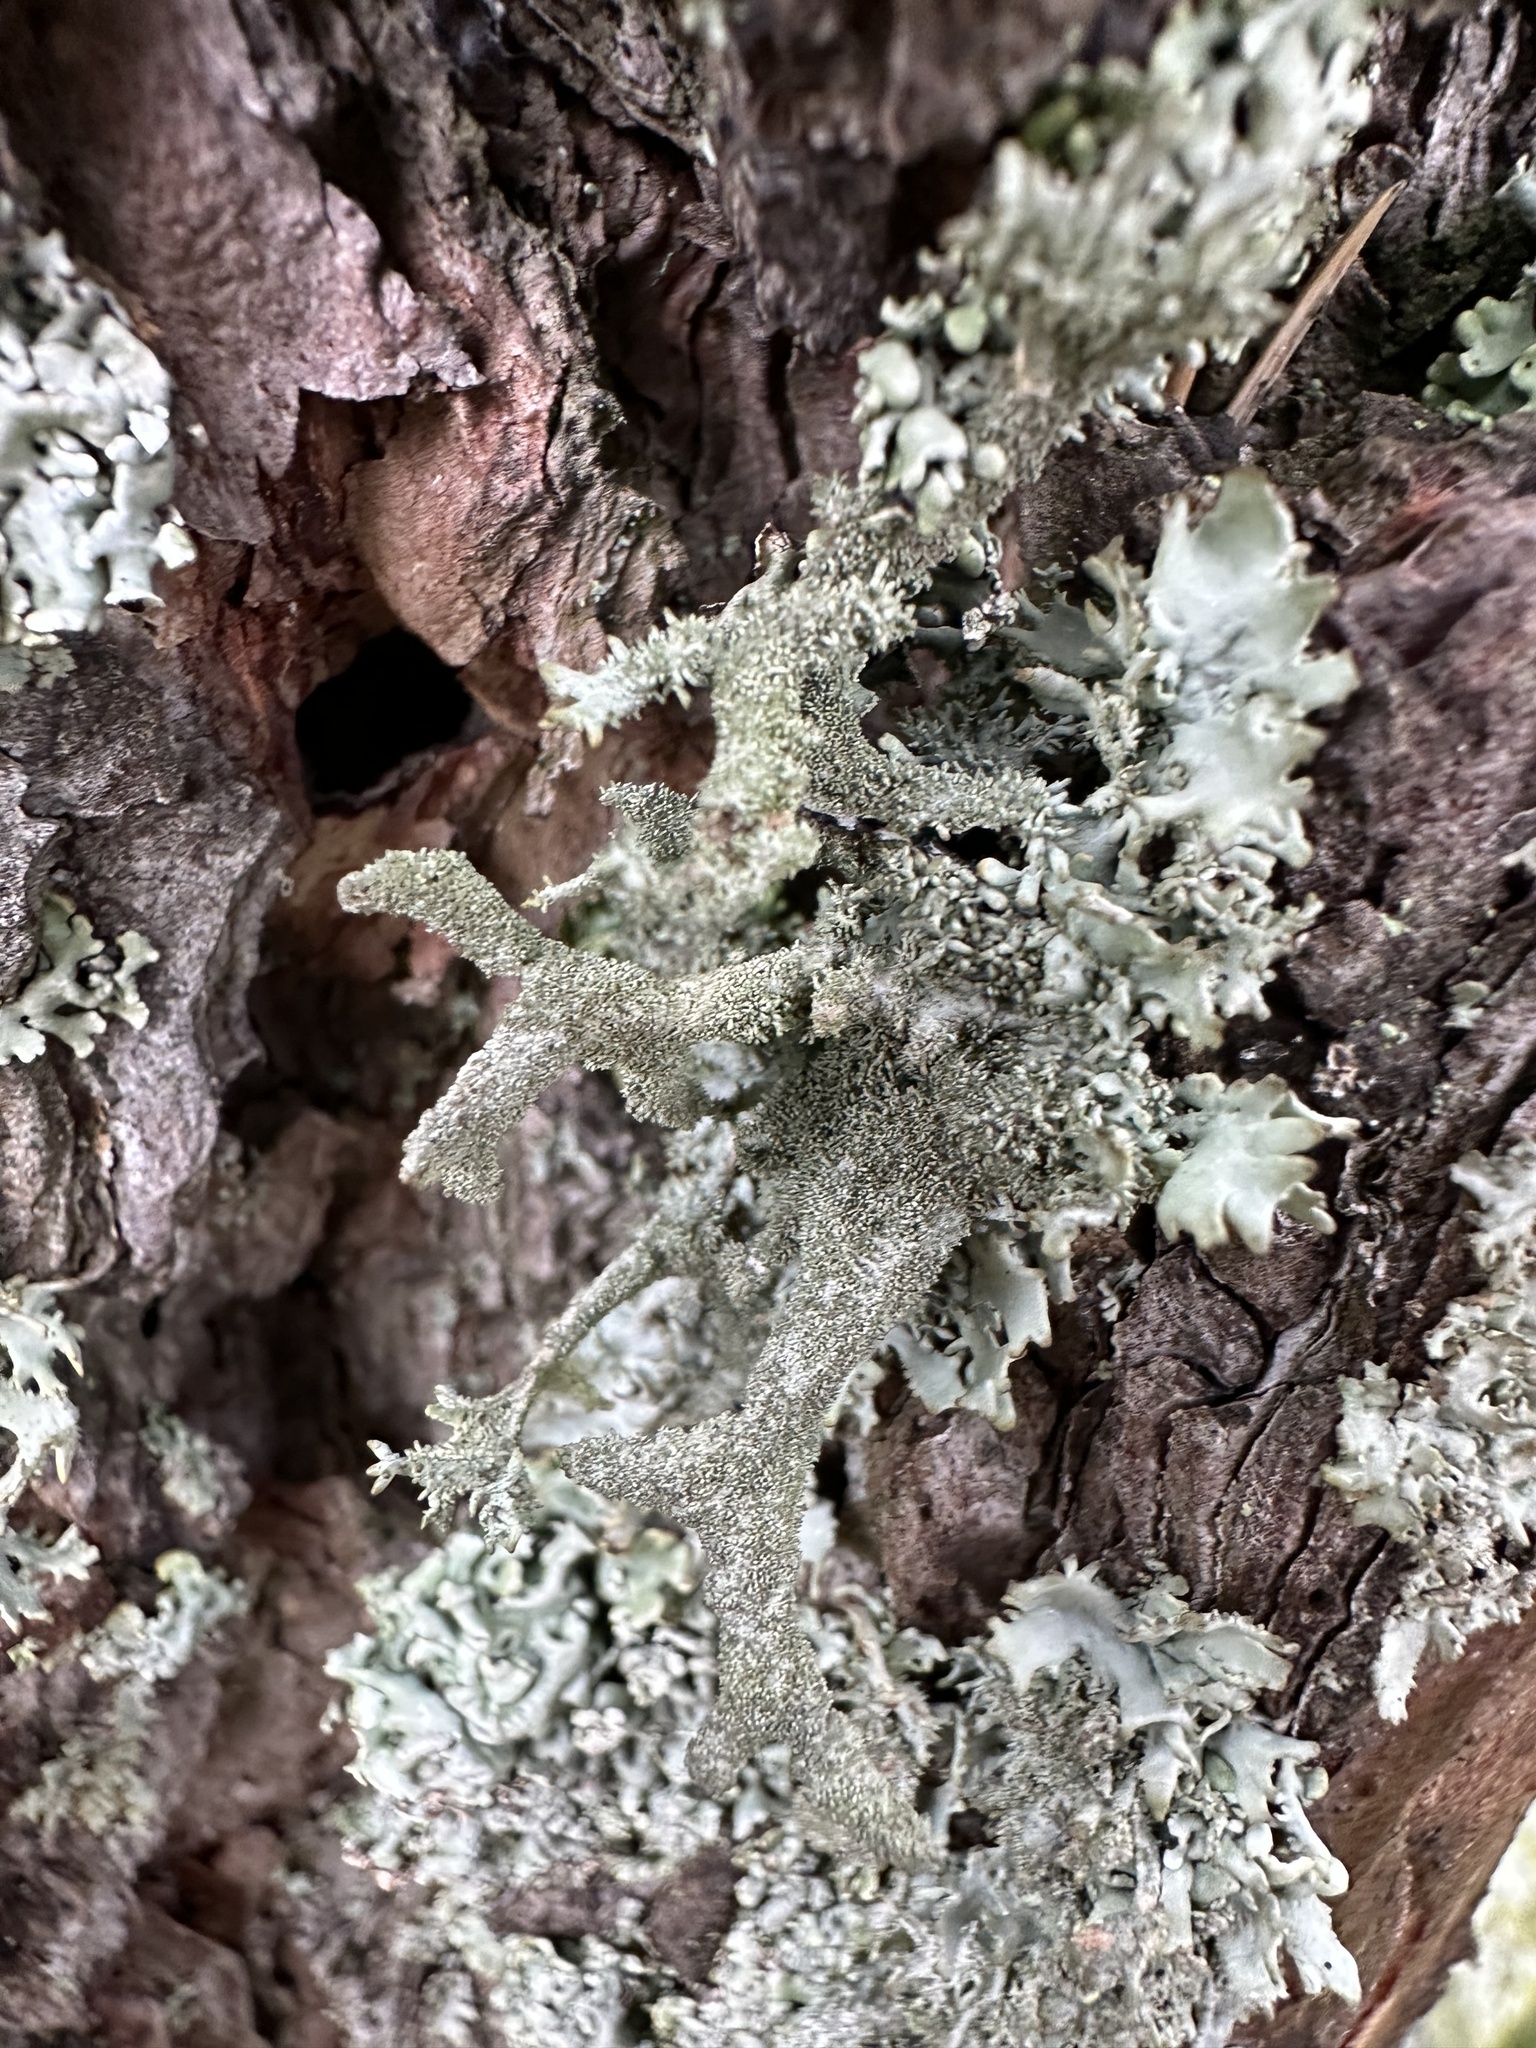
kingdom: Fungi
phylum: Ascomycota
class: Lecanoromycetes
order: Lecanorales
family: Parmeliaceae
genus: Pseudevernia
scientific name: Pseudevernia furfuracea
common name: Tree moss
